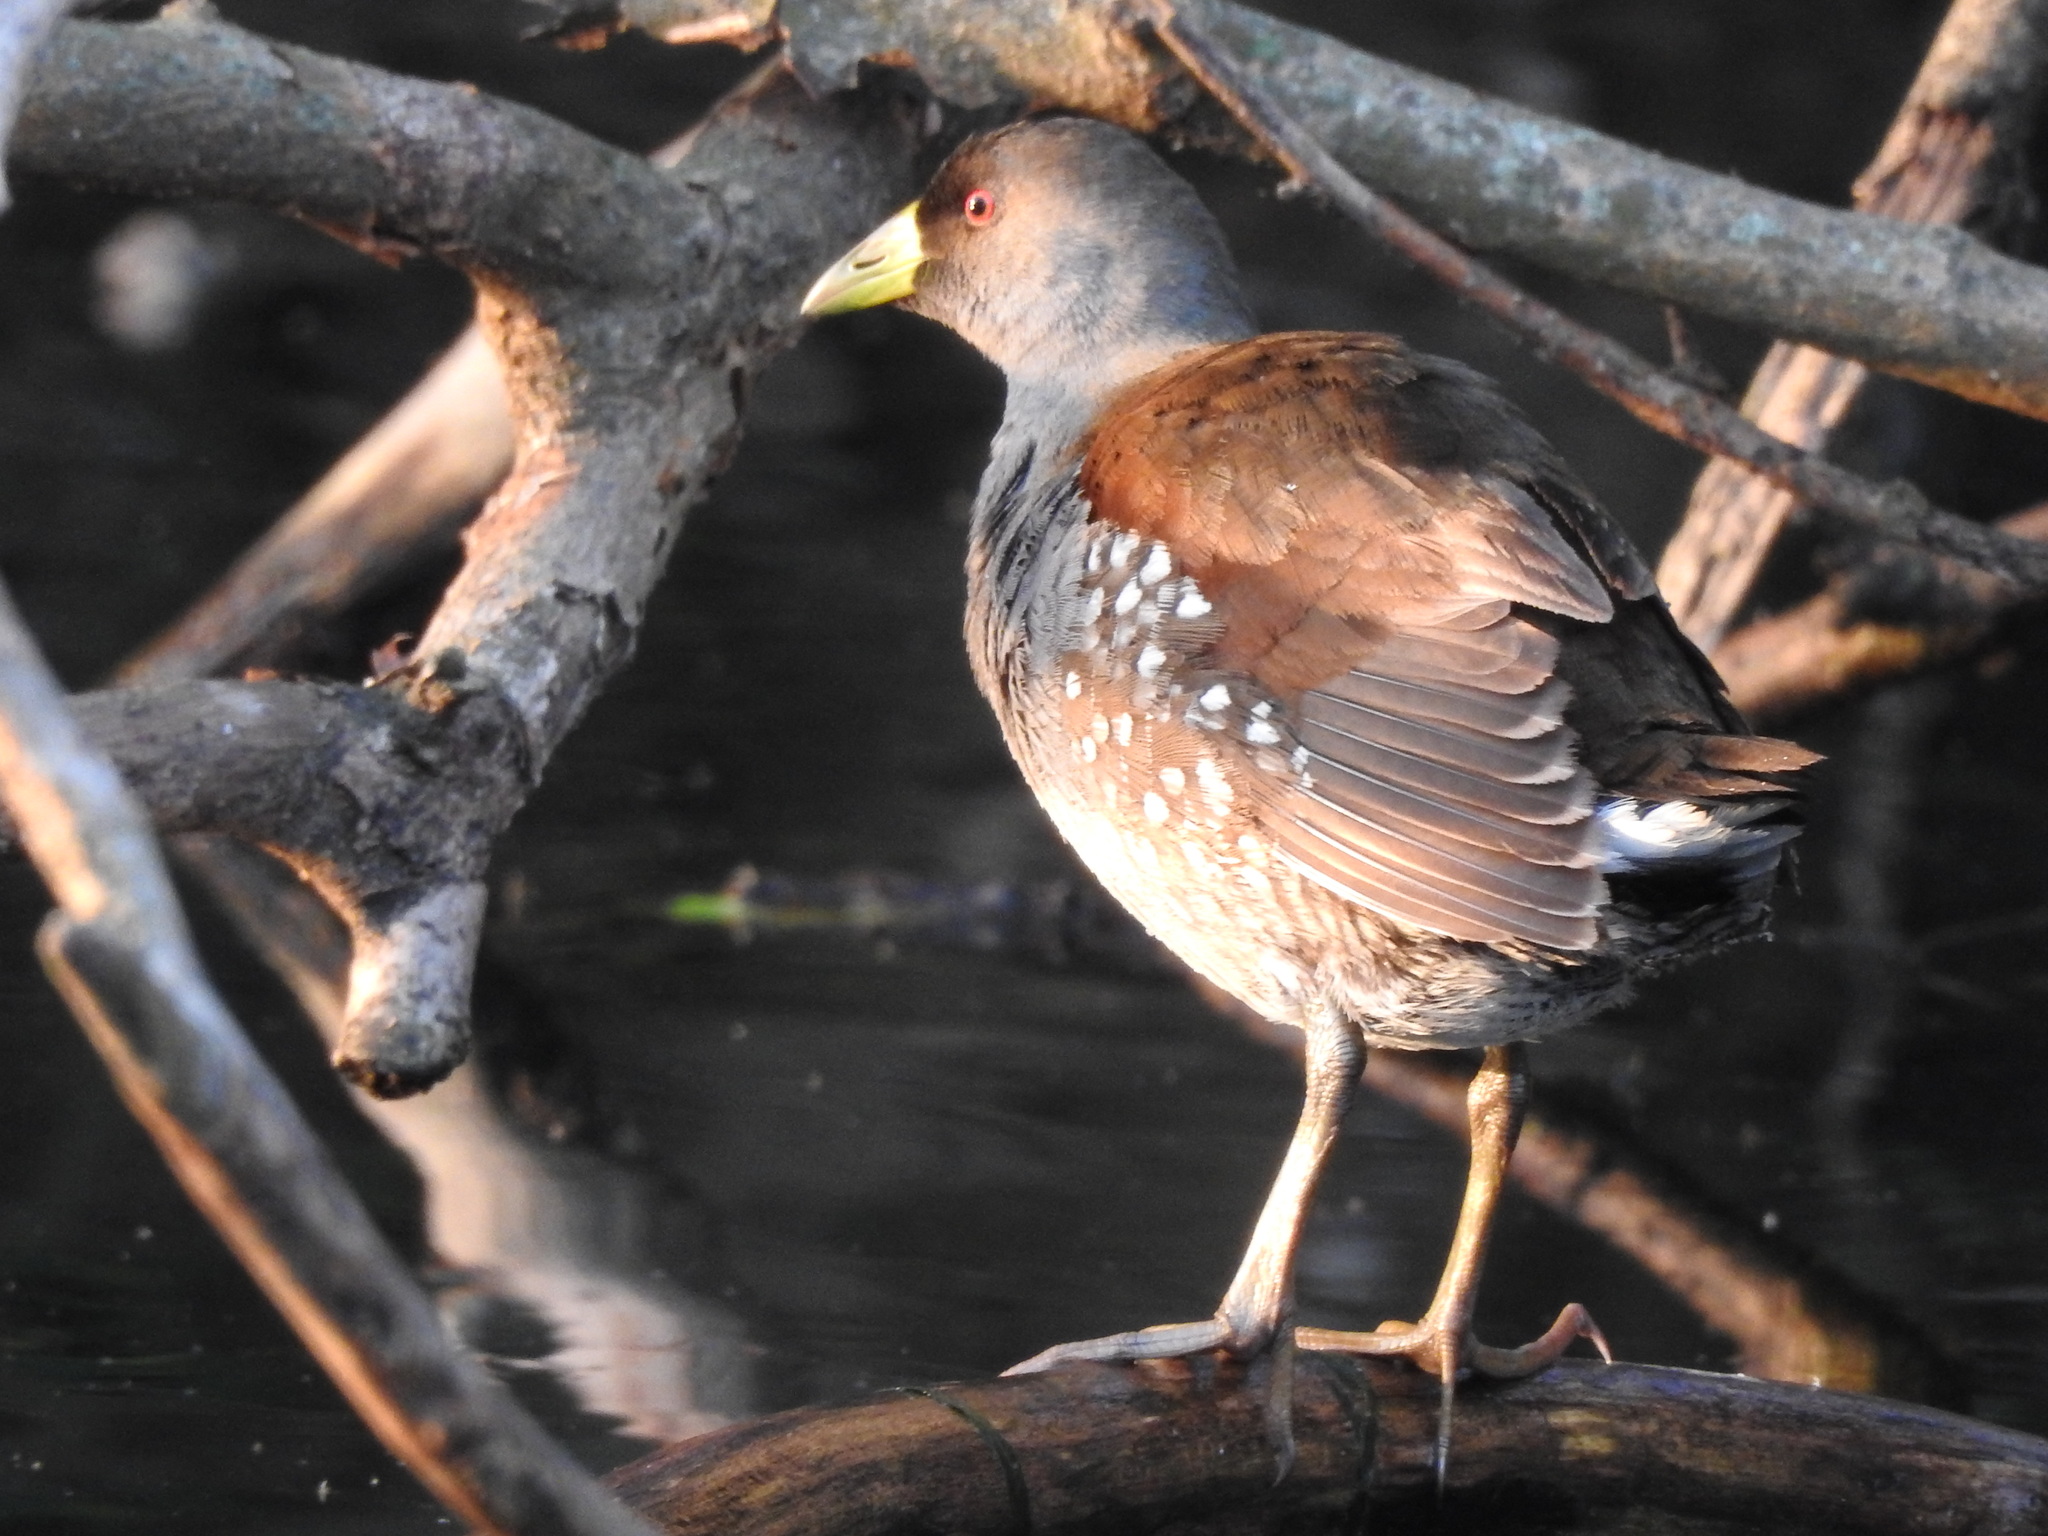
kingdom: Animalia
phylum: Chordata
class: Aves
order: Gruiformes
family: Rallidae
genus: Gallinula
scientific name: Gallinula melanops
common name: Spot-flanked gallinule
